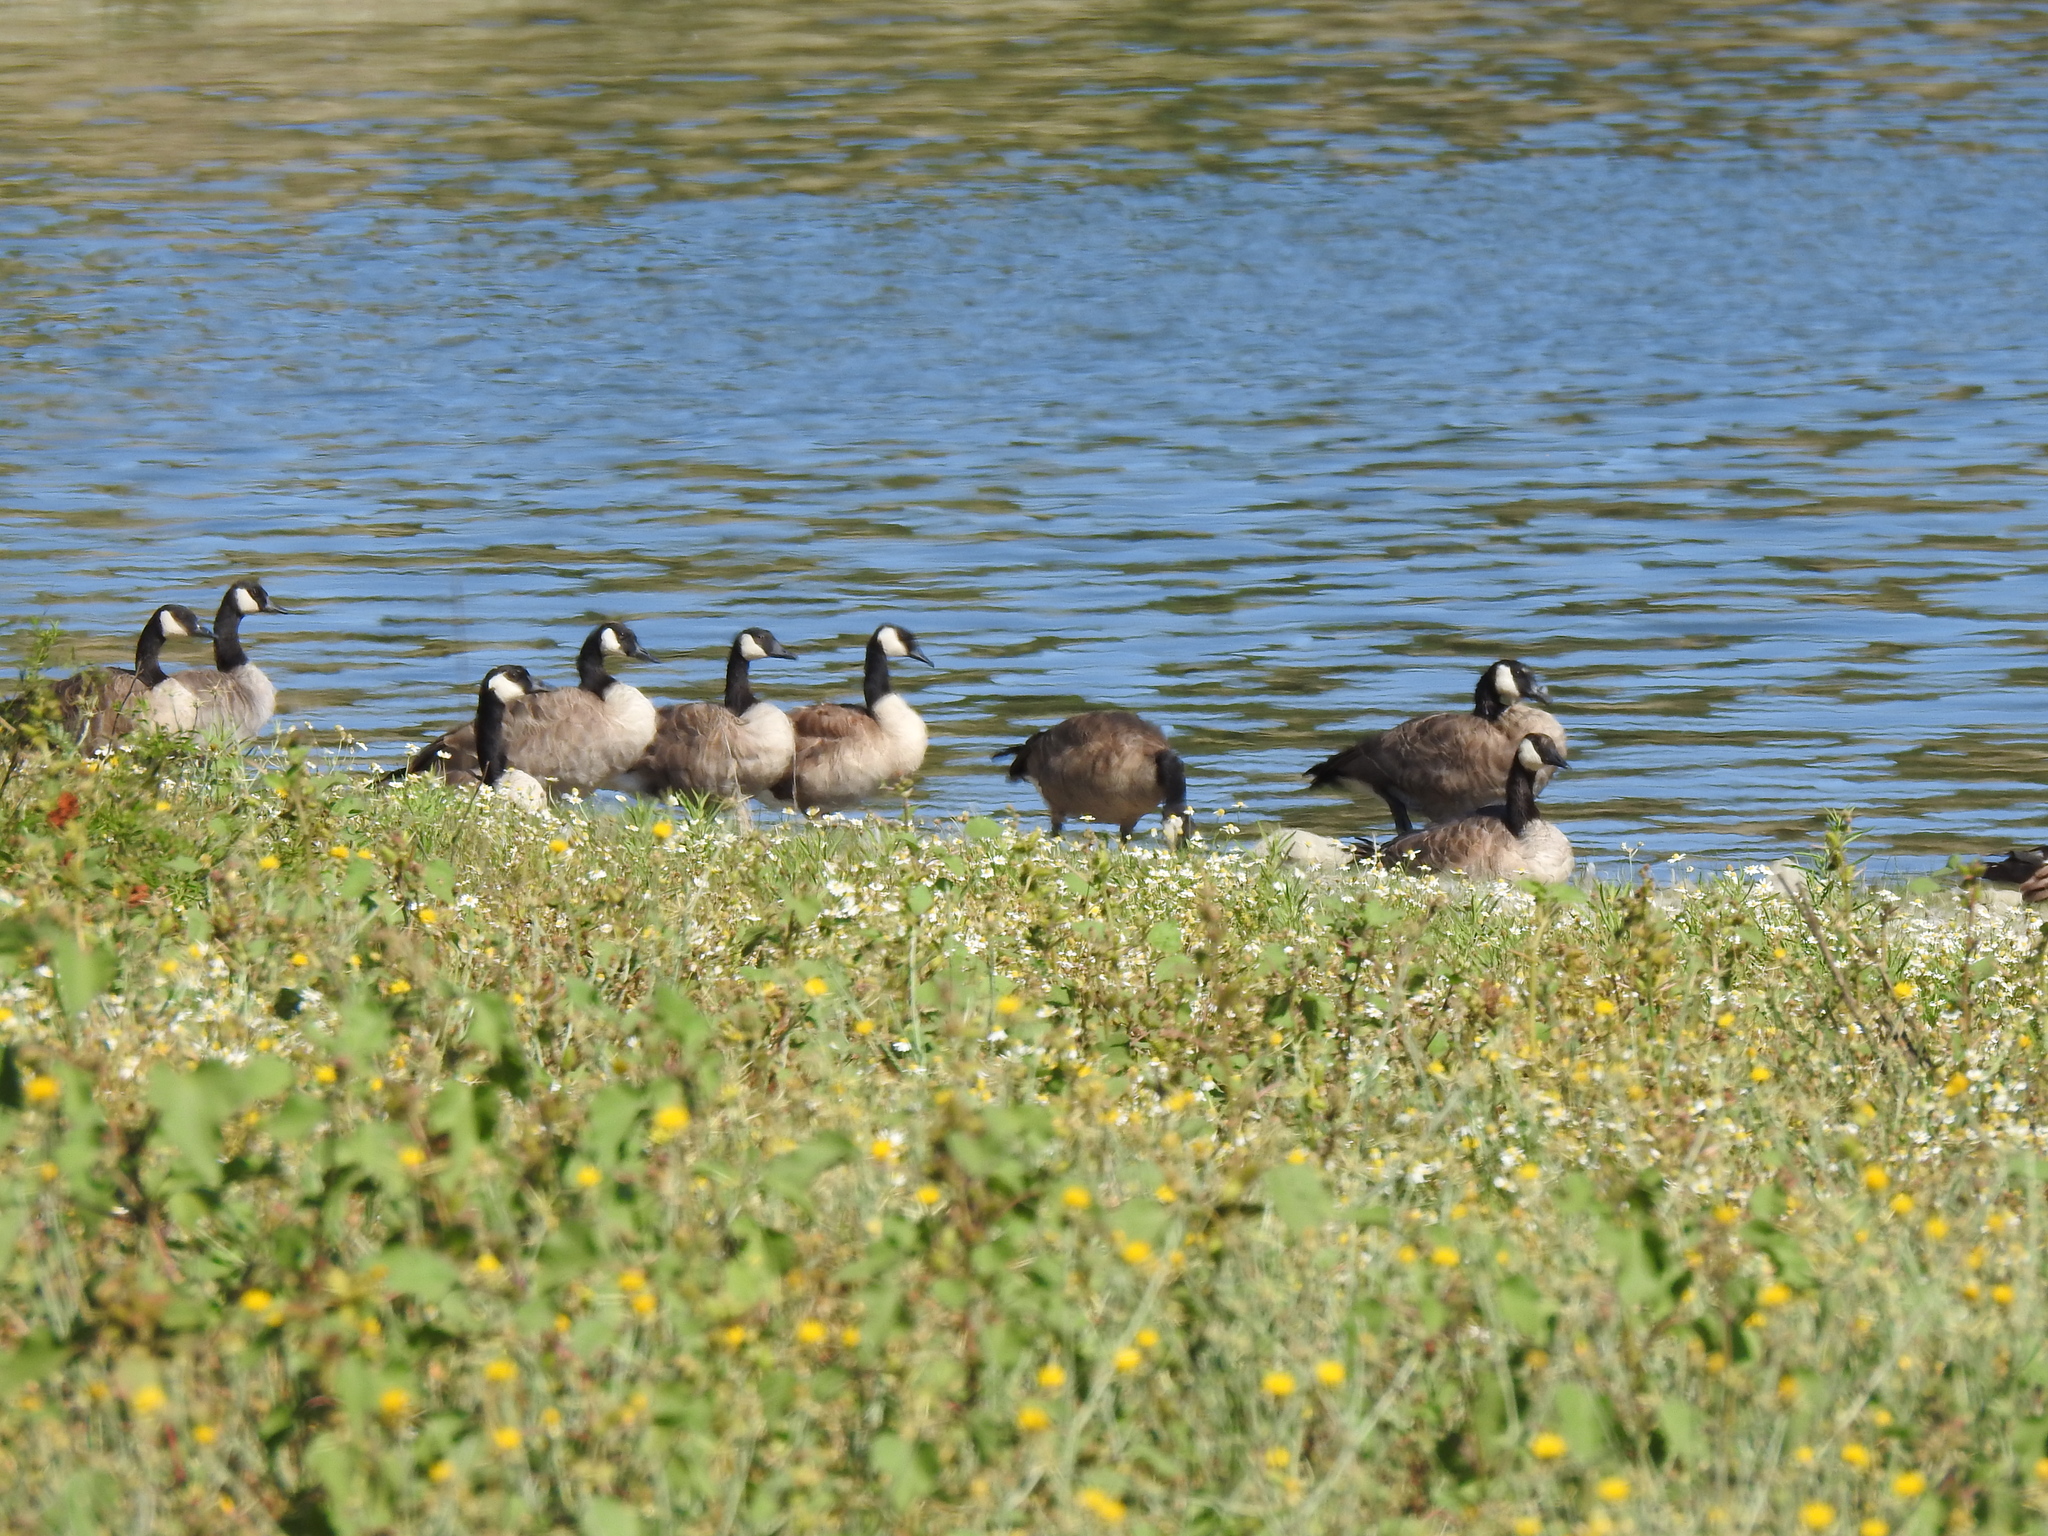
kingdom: Animalia
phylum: Chordata
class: Aves
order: Anseriformes
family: Anatidae
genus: Branta
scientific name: Branta canadensis
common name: Canada goose
